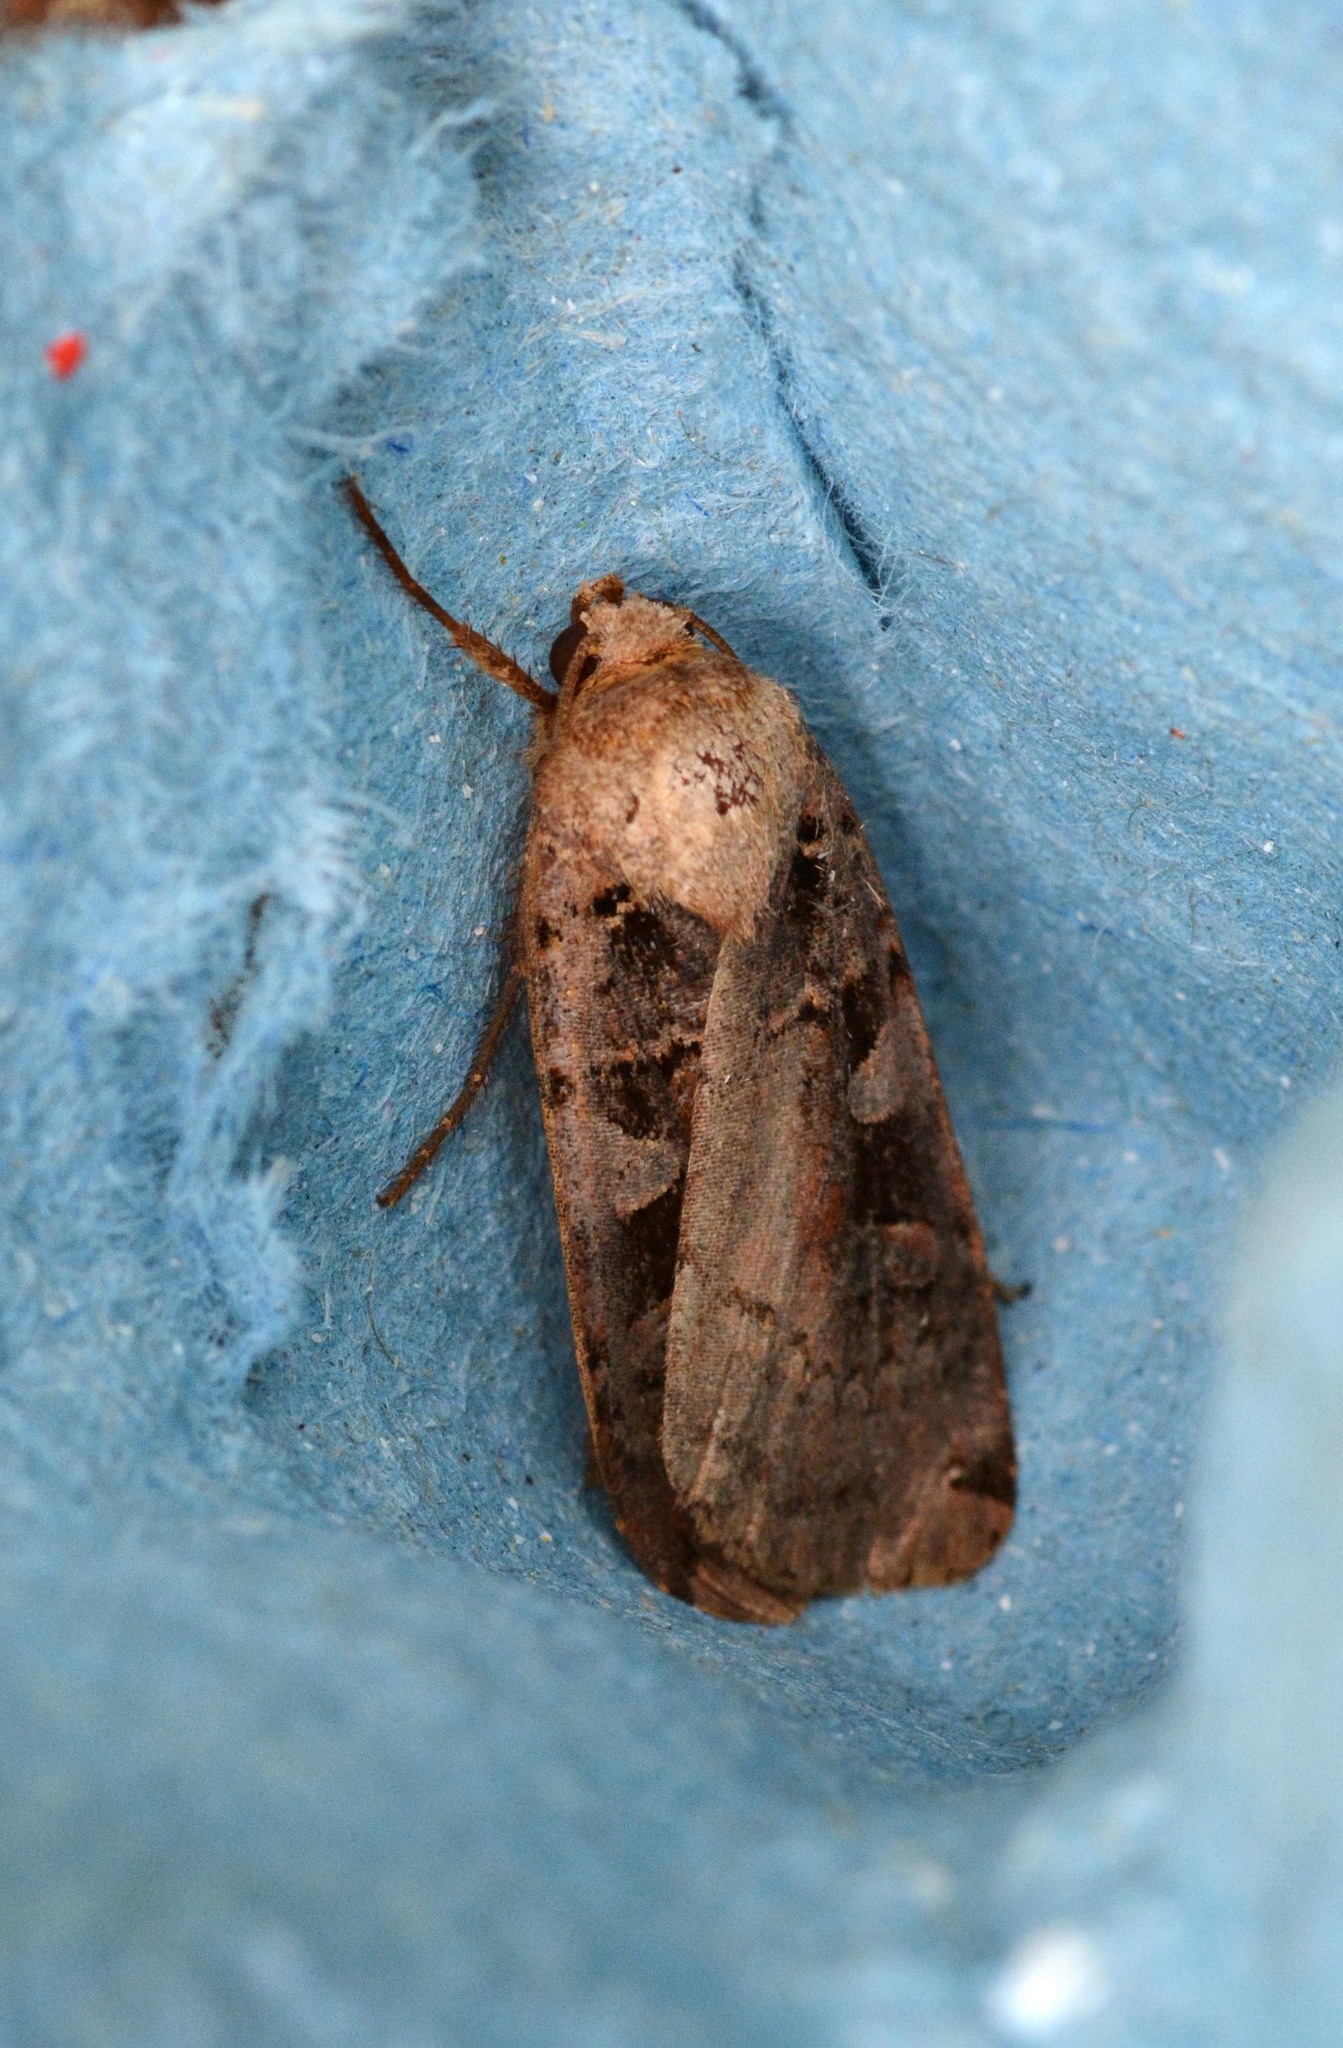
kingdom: Animalia
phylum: Arthropoda
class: Insecta
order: Lepidoptera
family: Noctuidae
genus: Xestia
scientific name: Xestia ditrapezium
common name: Triple-spotted clay
